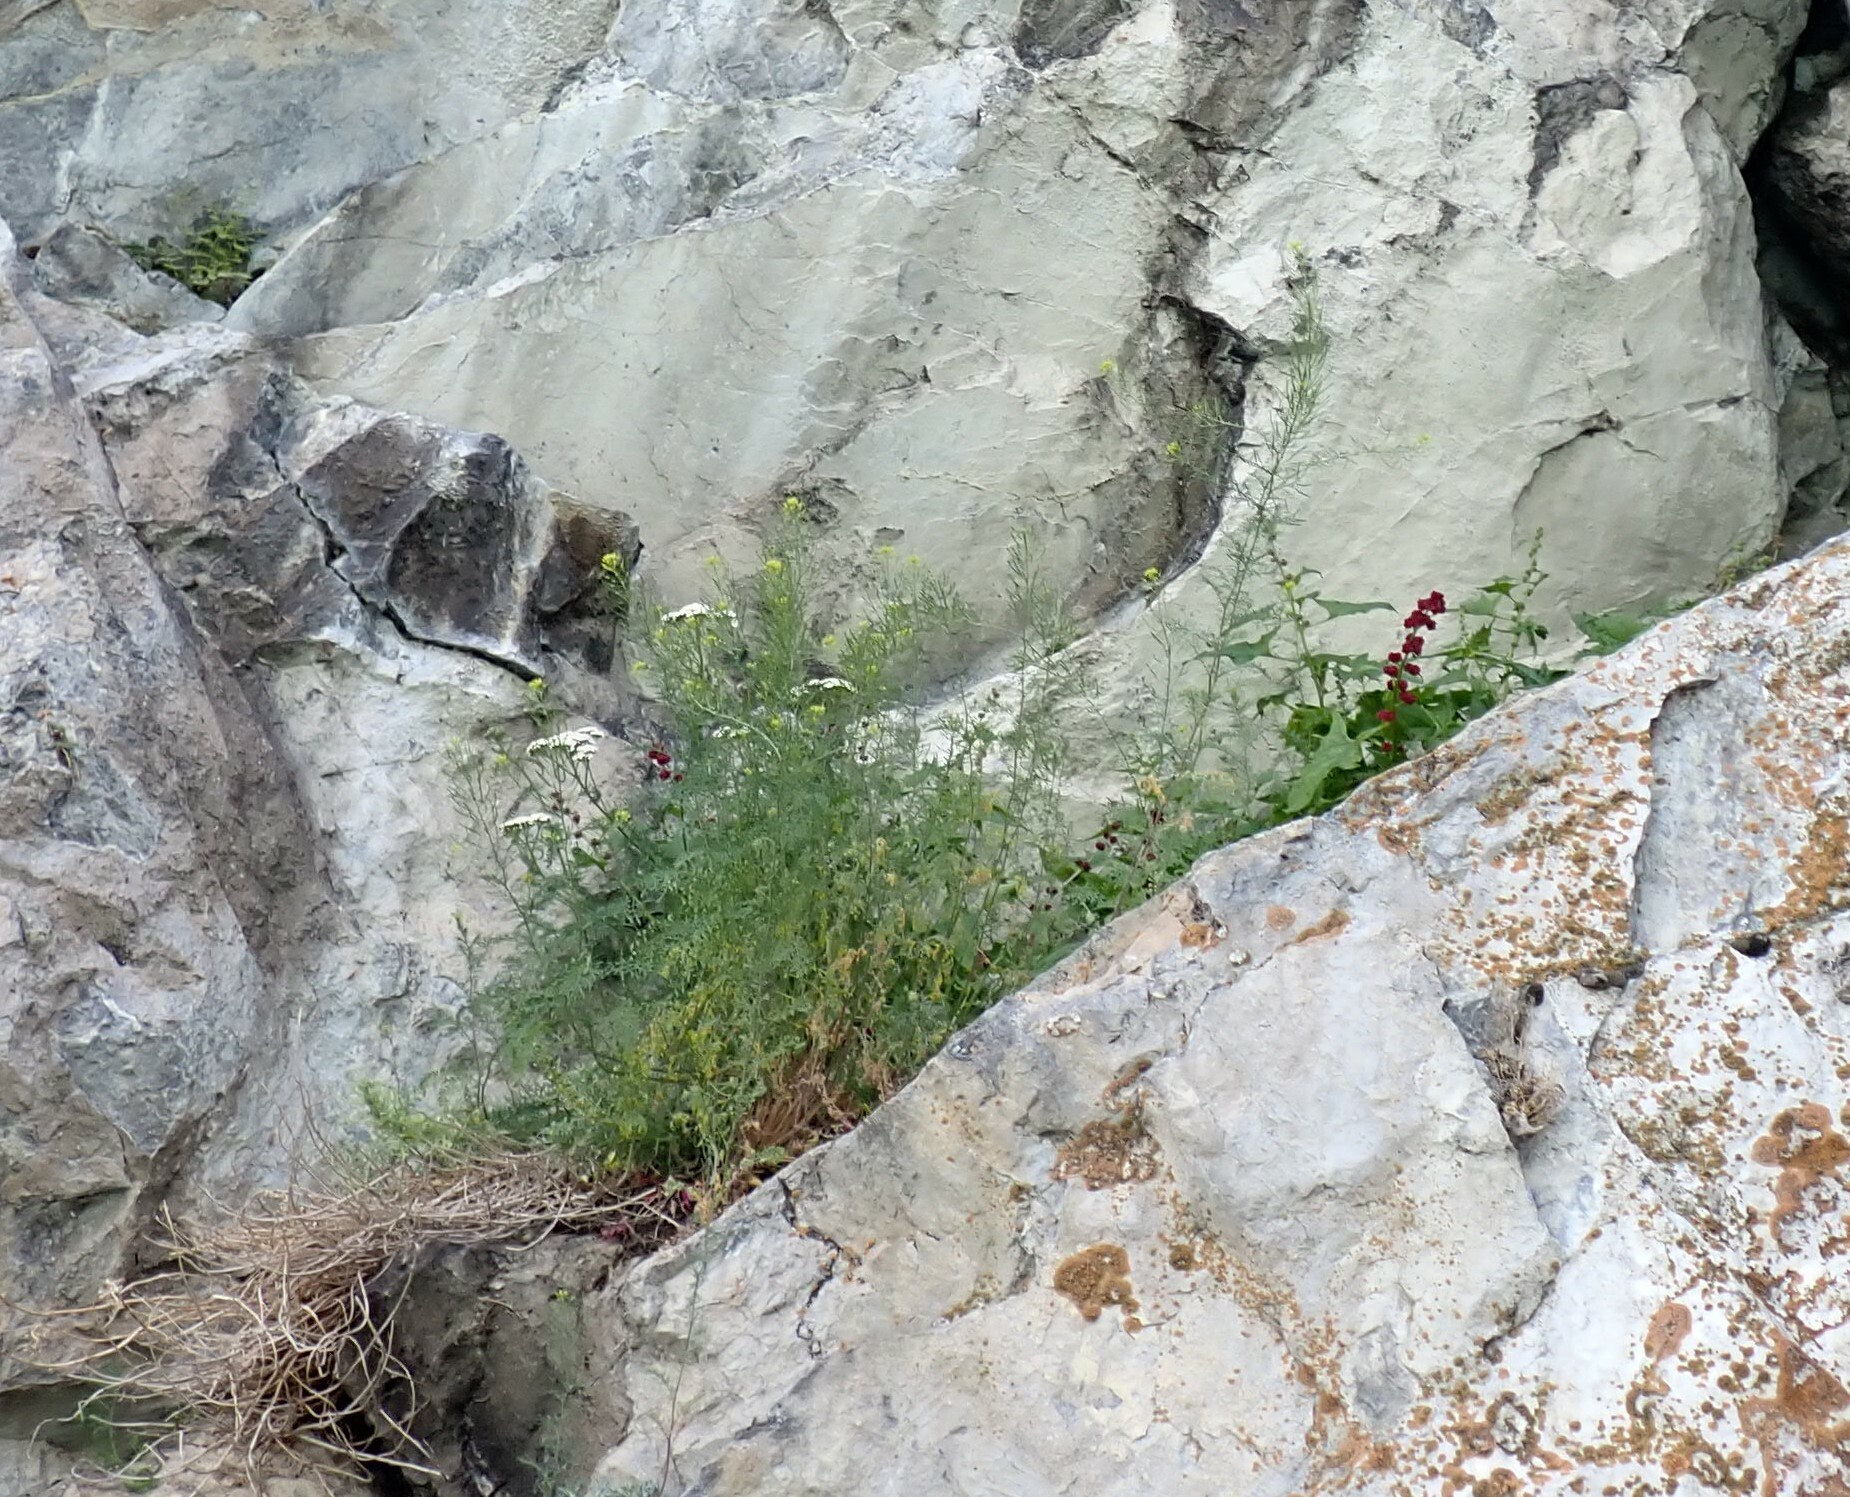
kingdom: Plantae
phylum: Tracheophyta
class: Magnoliopsida
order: Caryophyllales
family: Amaranthaceae
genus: Blitum
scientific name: Blitum capitatum
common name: Strawberry-blight
